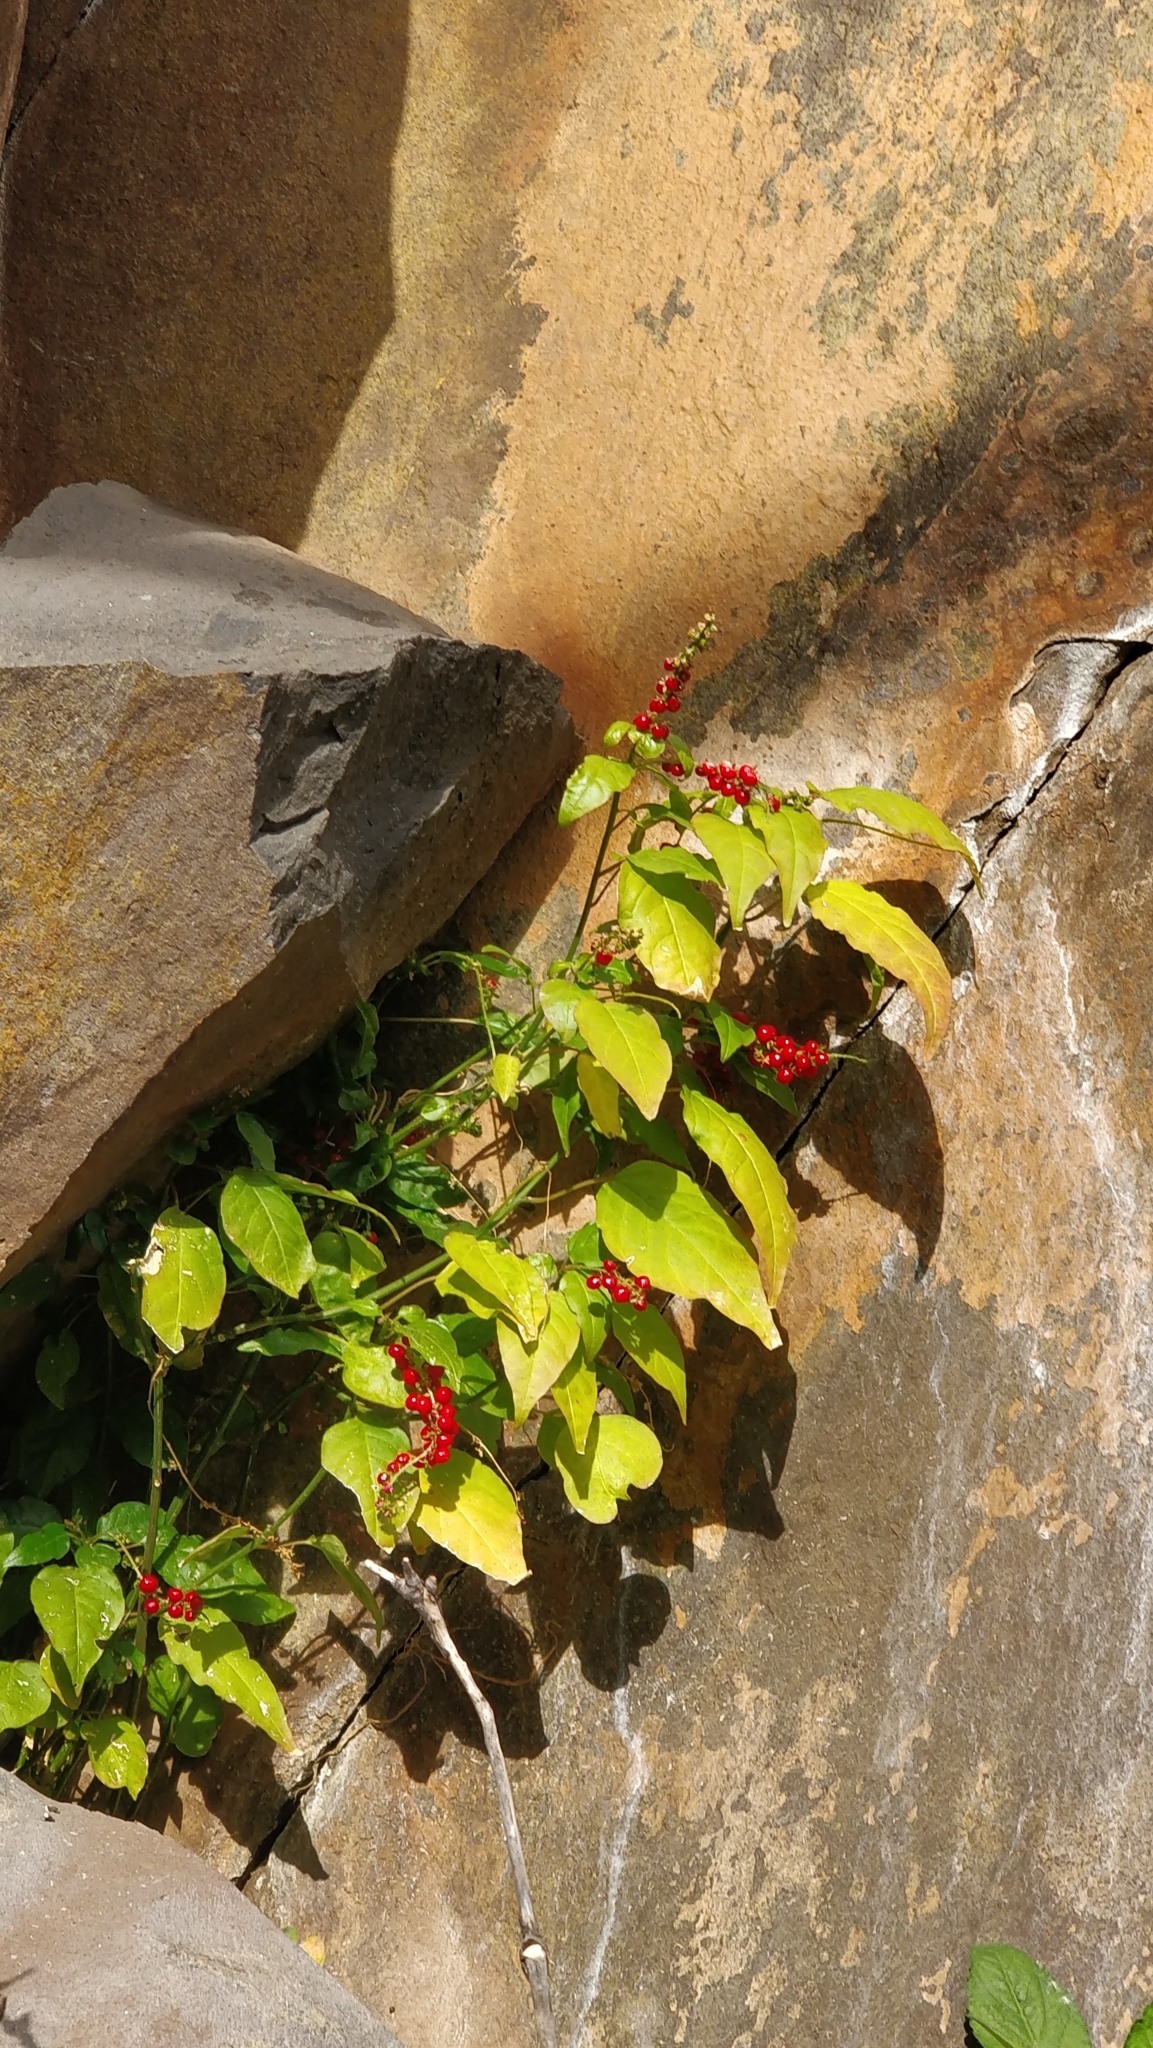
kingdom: Plantae
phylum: Tracheophyta
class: Magnoliopsida
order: Caryophyllales
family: Phytolaccaceae
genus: Rivina
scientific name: Rivina humilis
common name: Rougeplant
